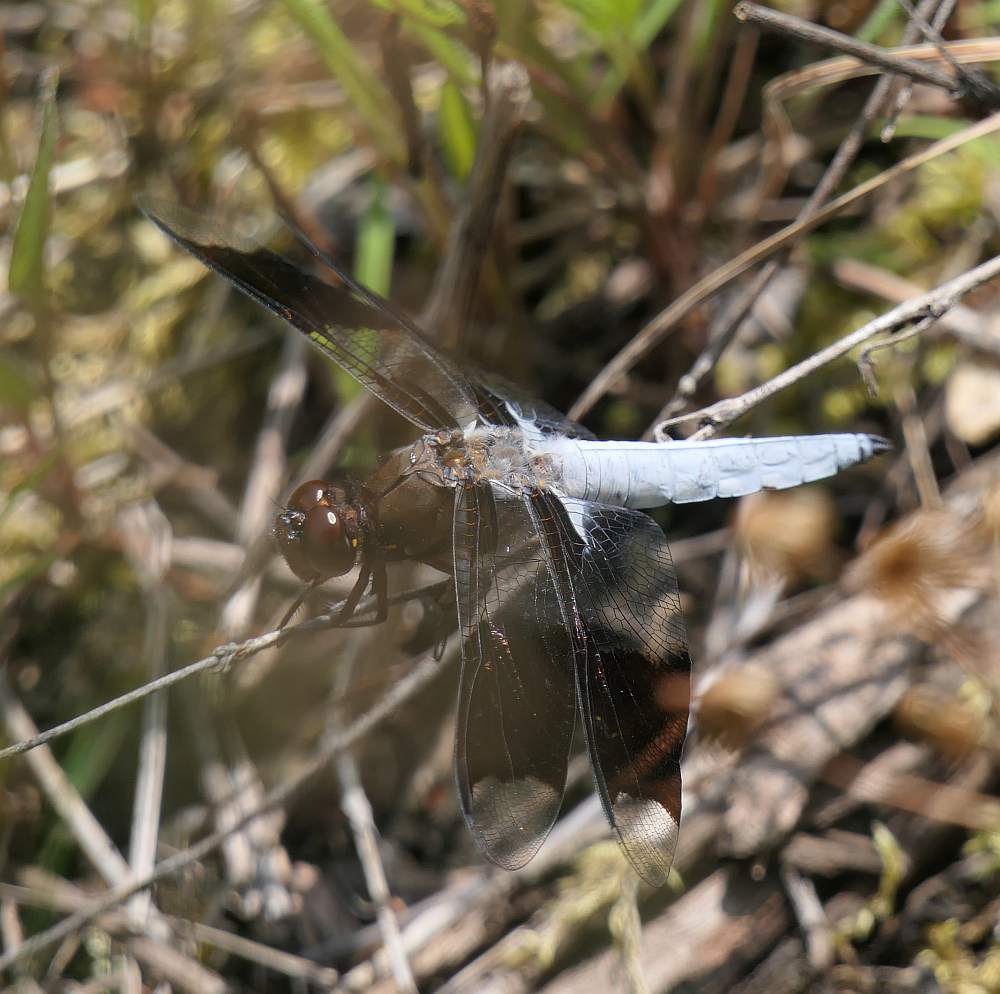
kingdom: Animalia
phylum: Arthropoda
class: Insecta
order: Odonata
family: Libellulidae
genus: Plathemis
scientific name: Plathemis lydia
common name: Common whitetail
